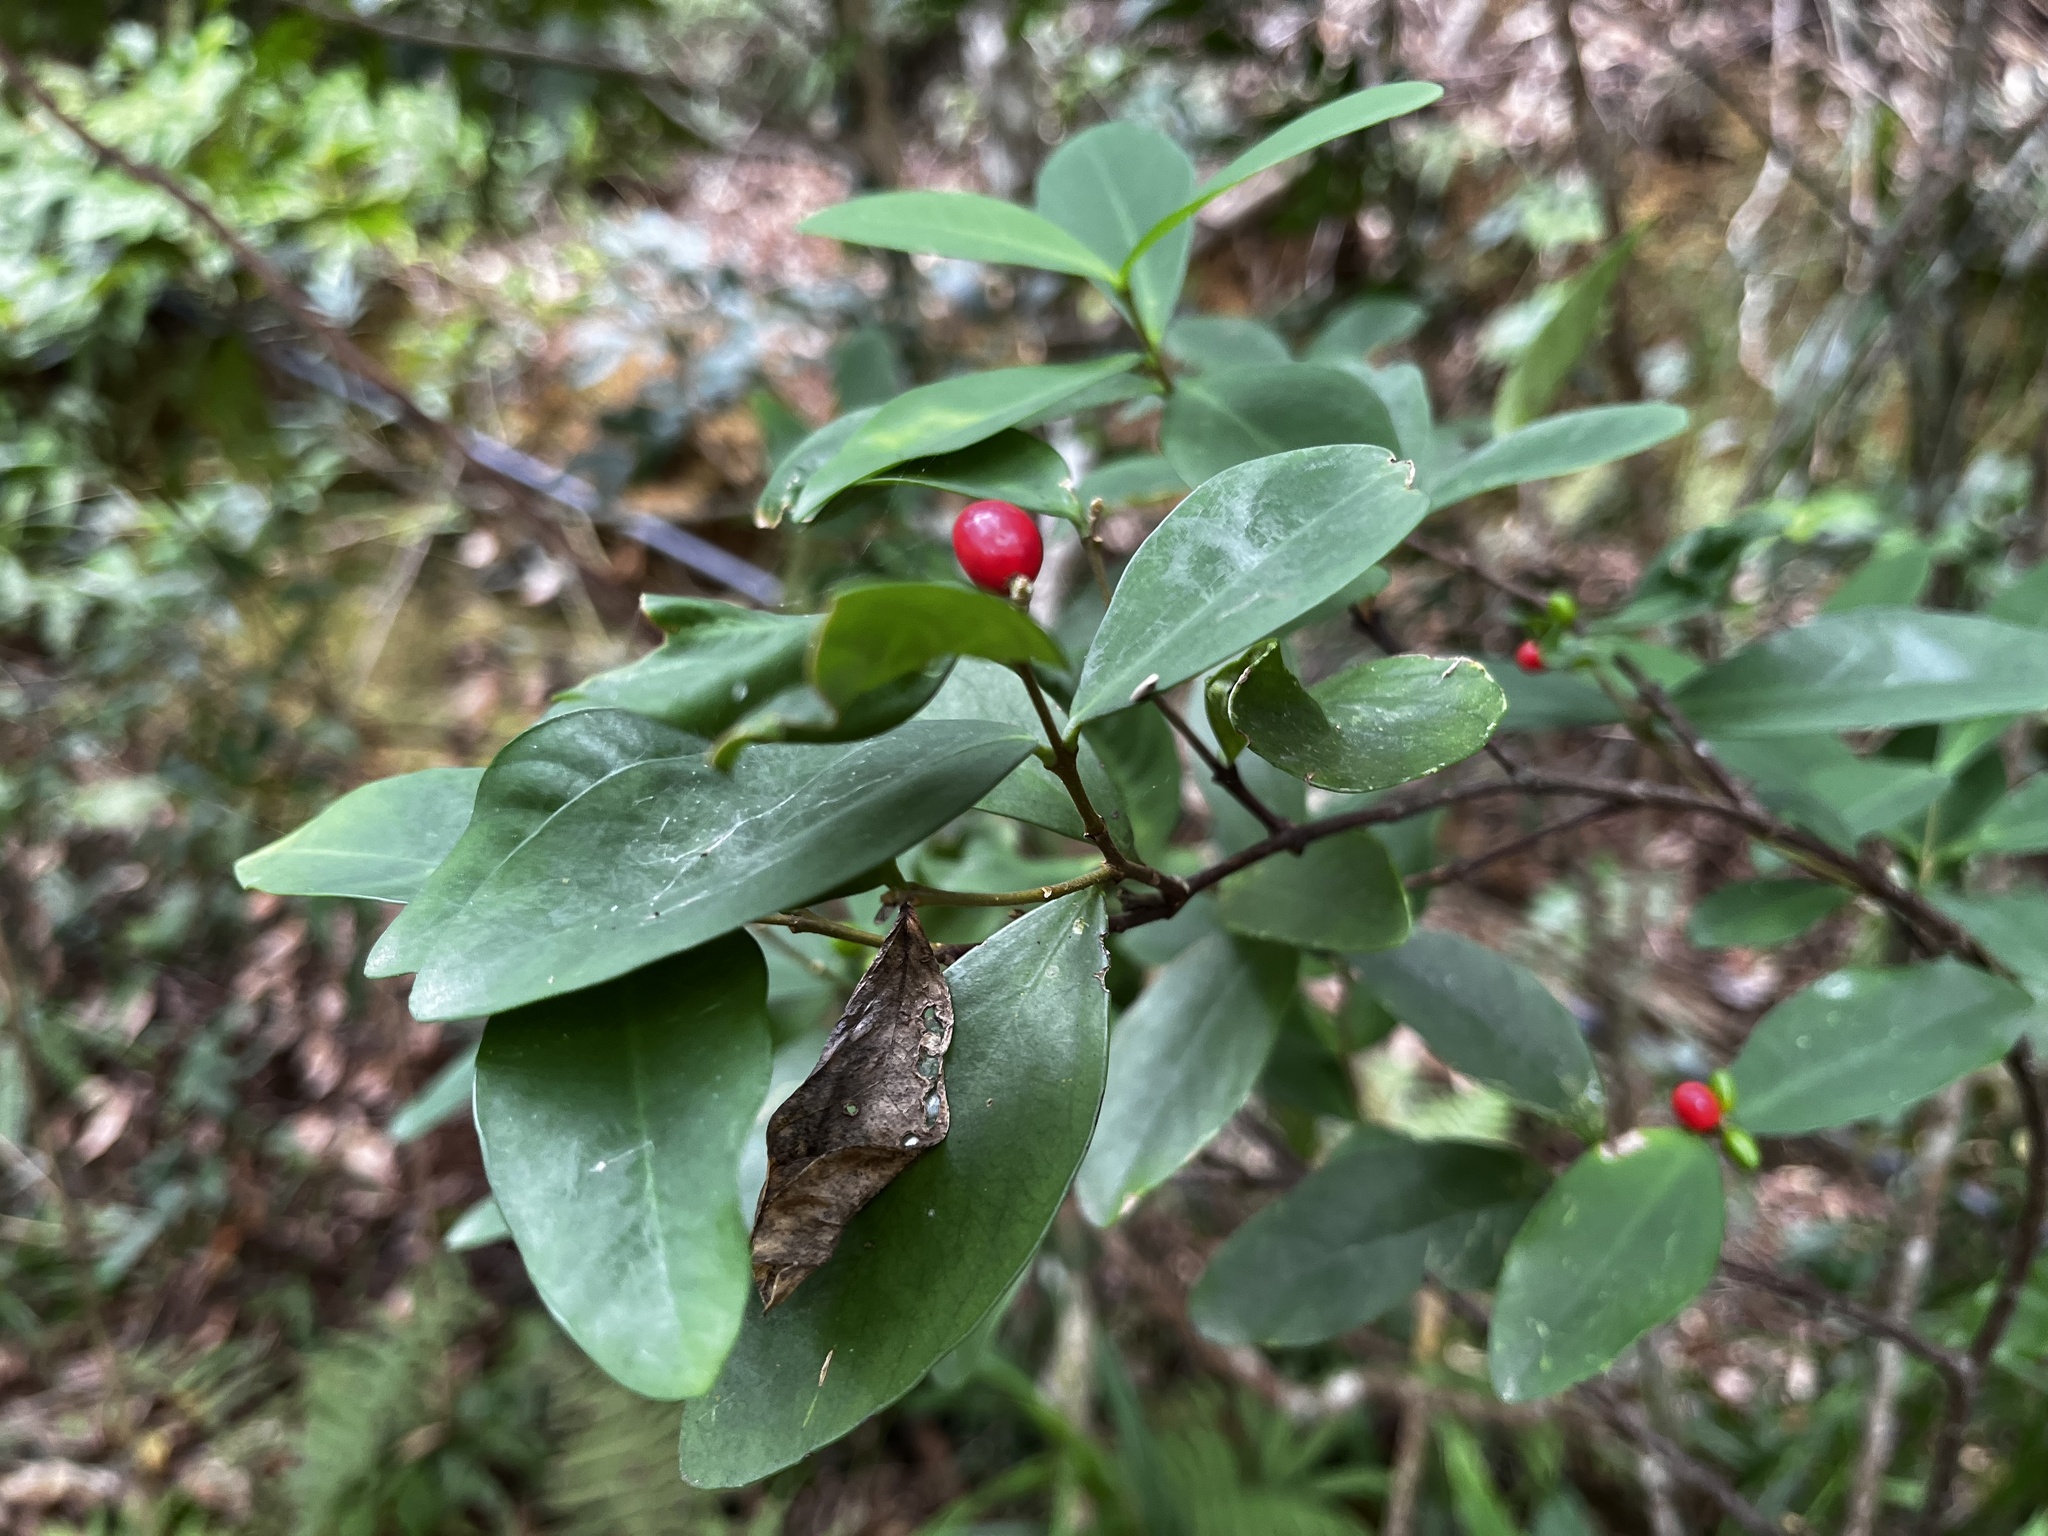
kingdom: Plantae
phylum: Tracheophyta
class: Magnoliopsida
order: Malvales
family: Thymelaeaceae
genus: Wikstroemia
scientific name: Wikstroemia indica
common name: Tiebush
